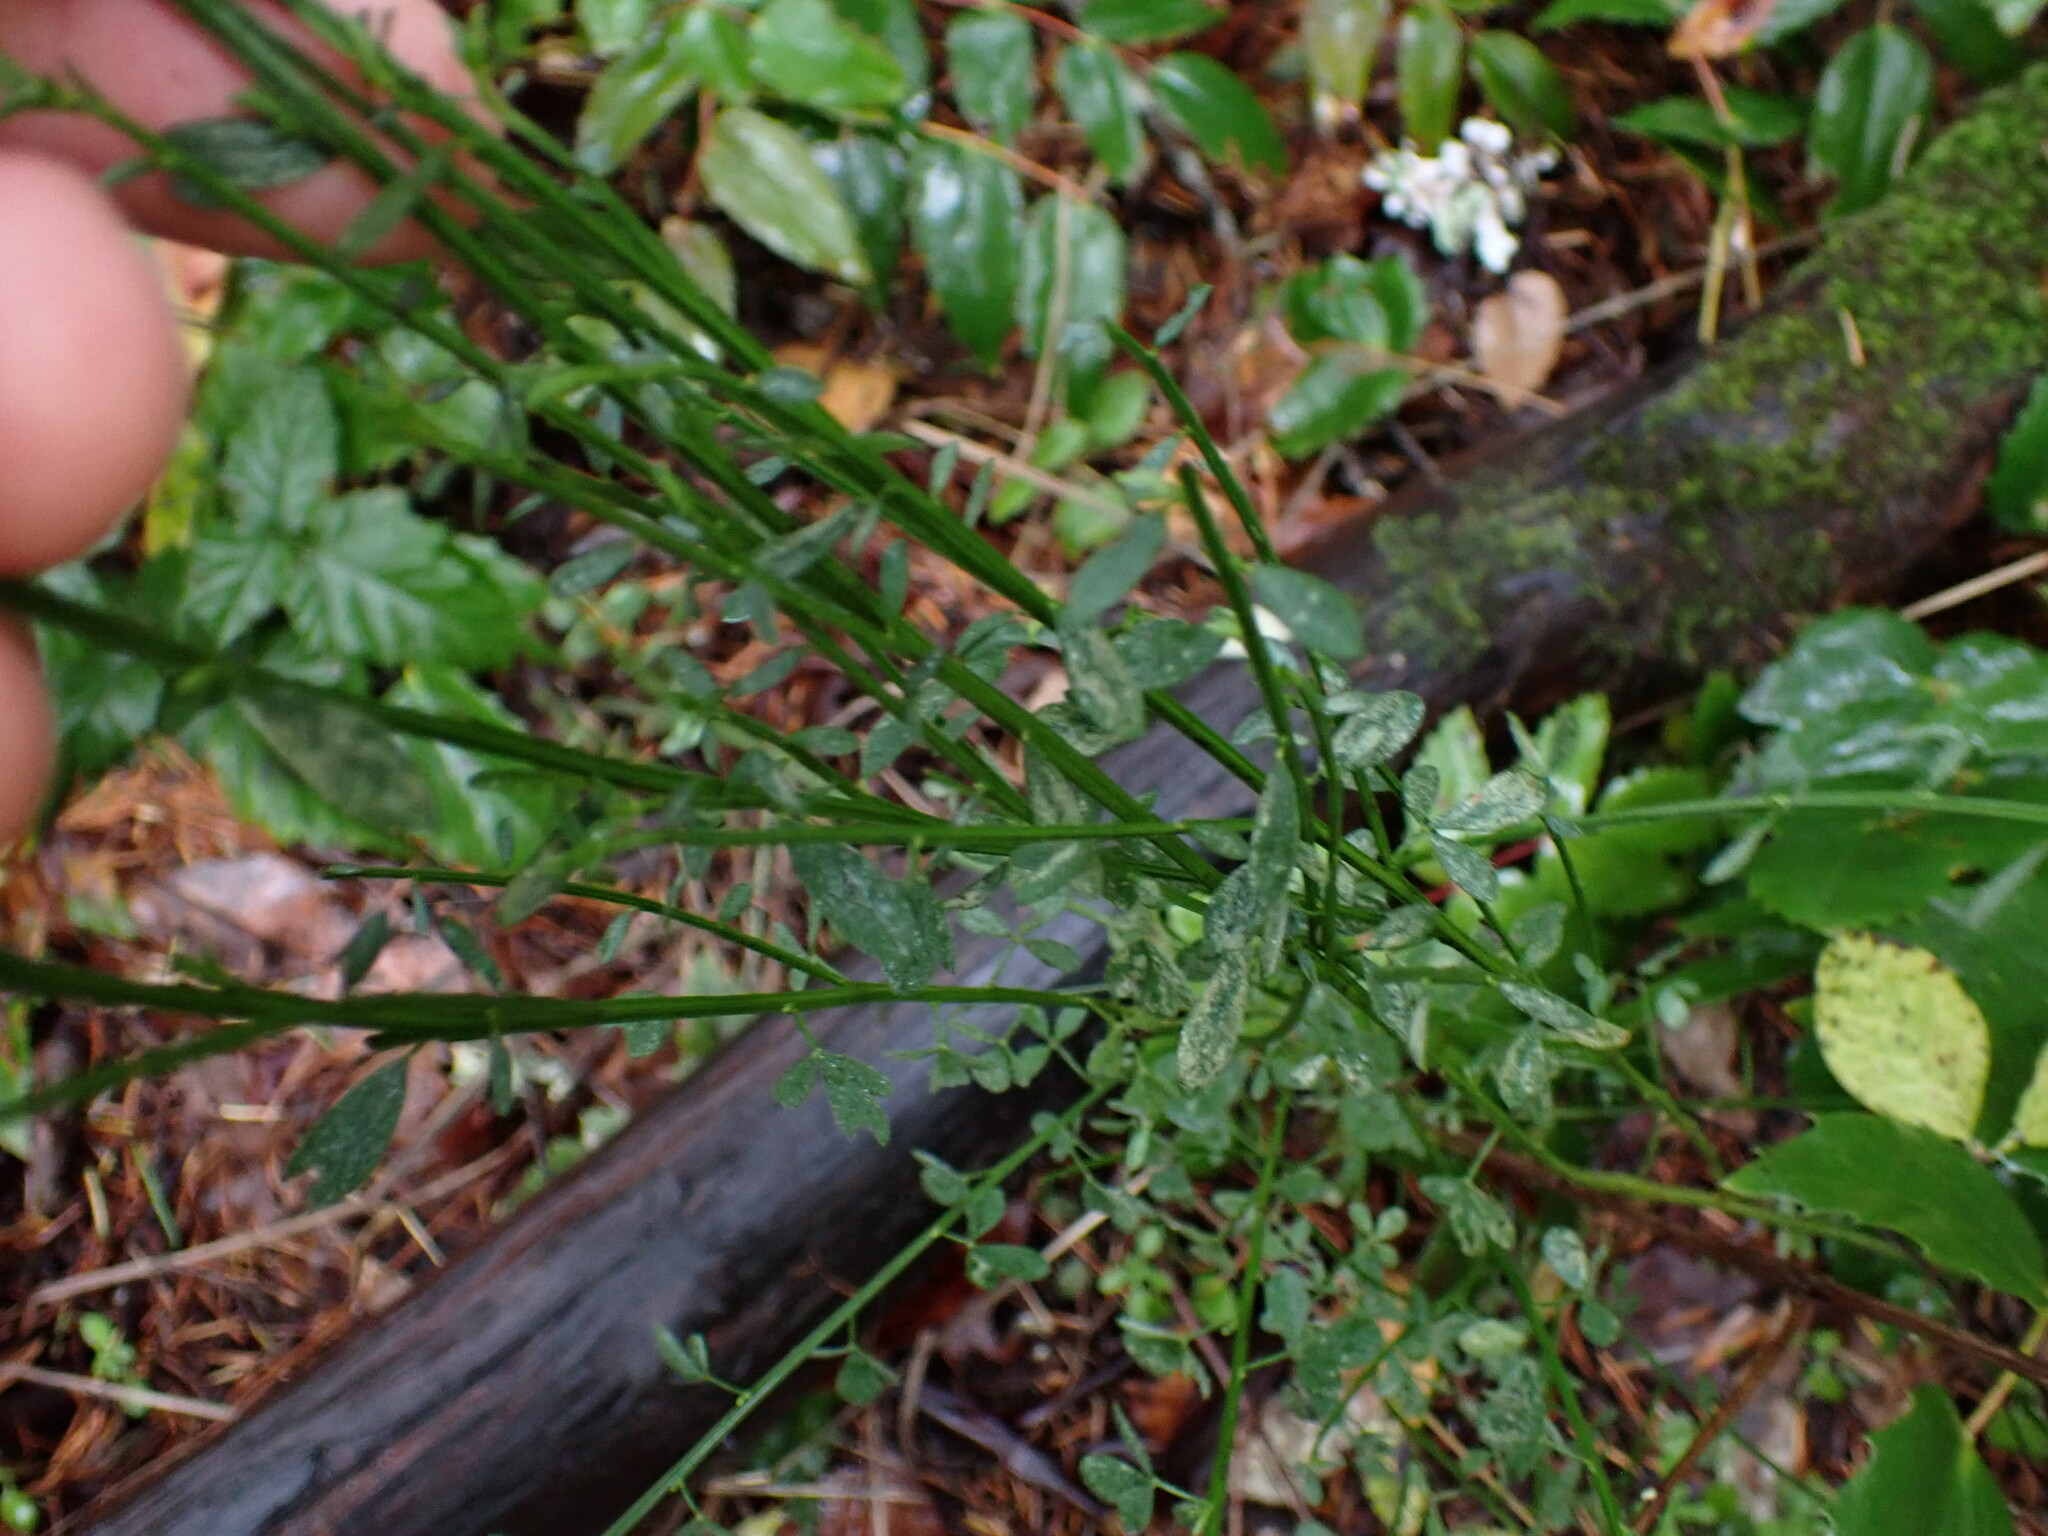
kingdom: Plantae
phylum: Tracheophyta
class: Magnoliopsida
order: Fabales
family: Fabaceae
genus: Cytisus
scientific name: Cytisus scoparius
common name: Scotch broom
